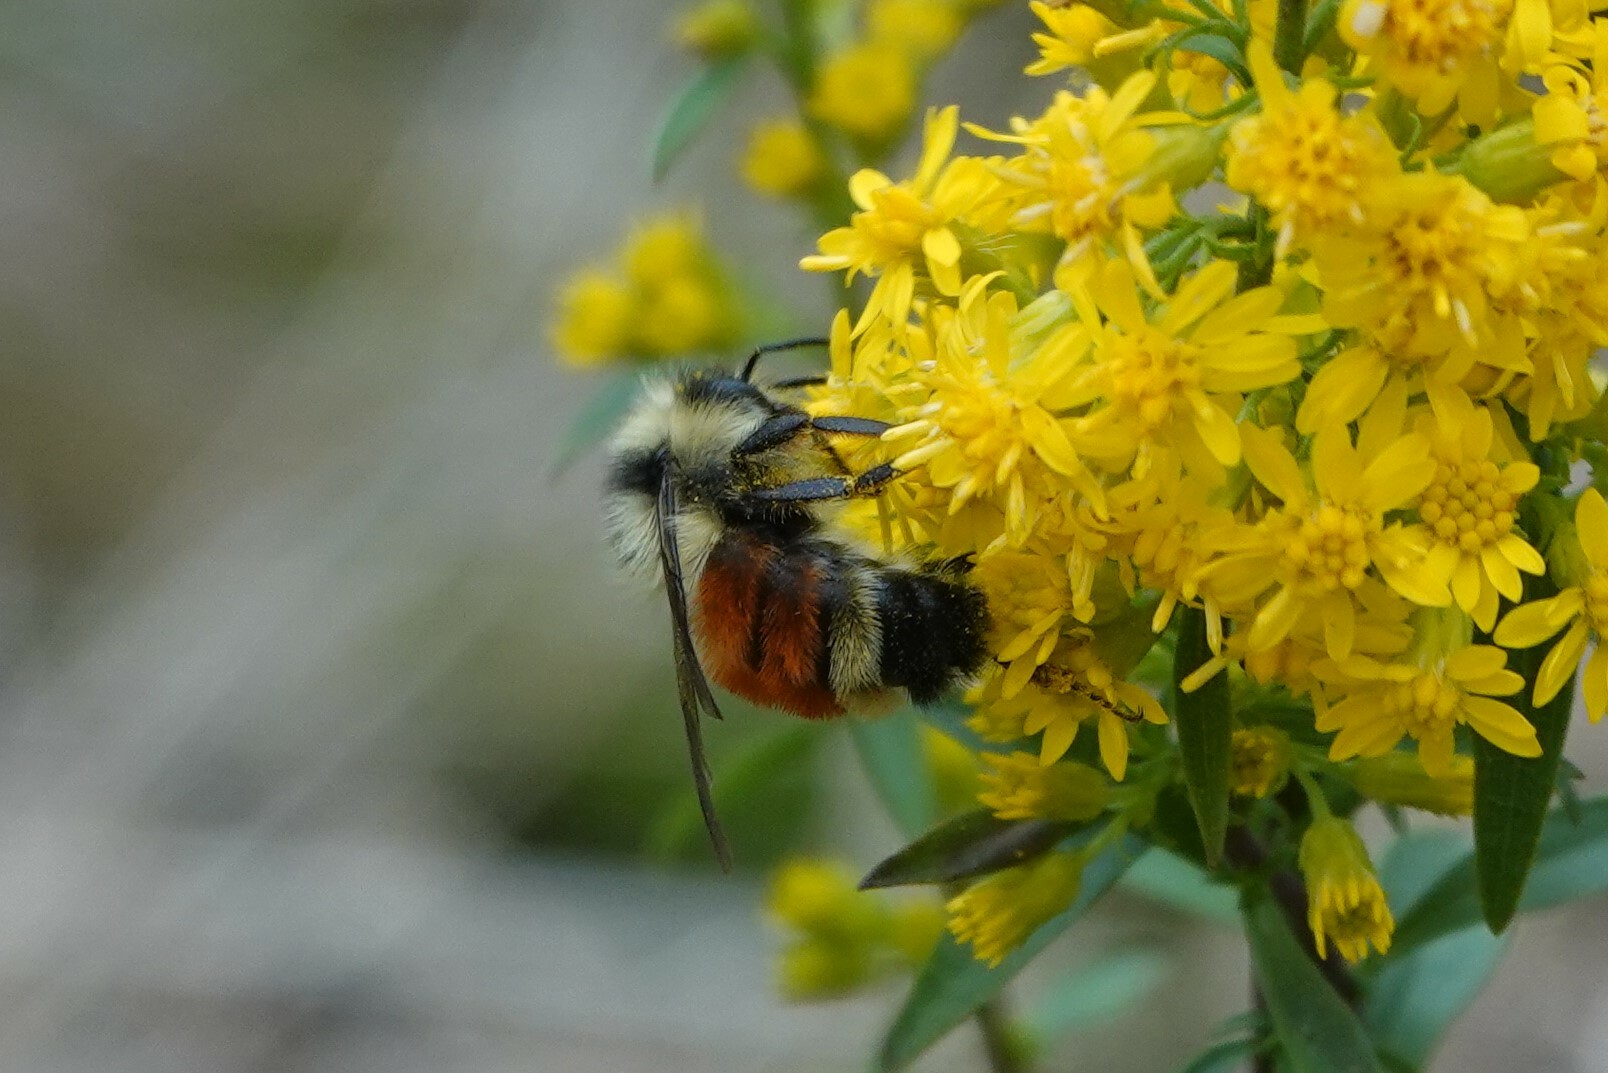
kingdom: Animalia
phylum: Arthropoda
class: Insecta
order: Hymenoptera
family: Apidae
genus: Bombus
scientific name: Bombus ternarius
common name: Tri-colored bumble bee
